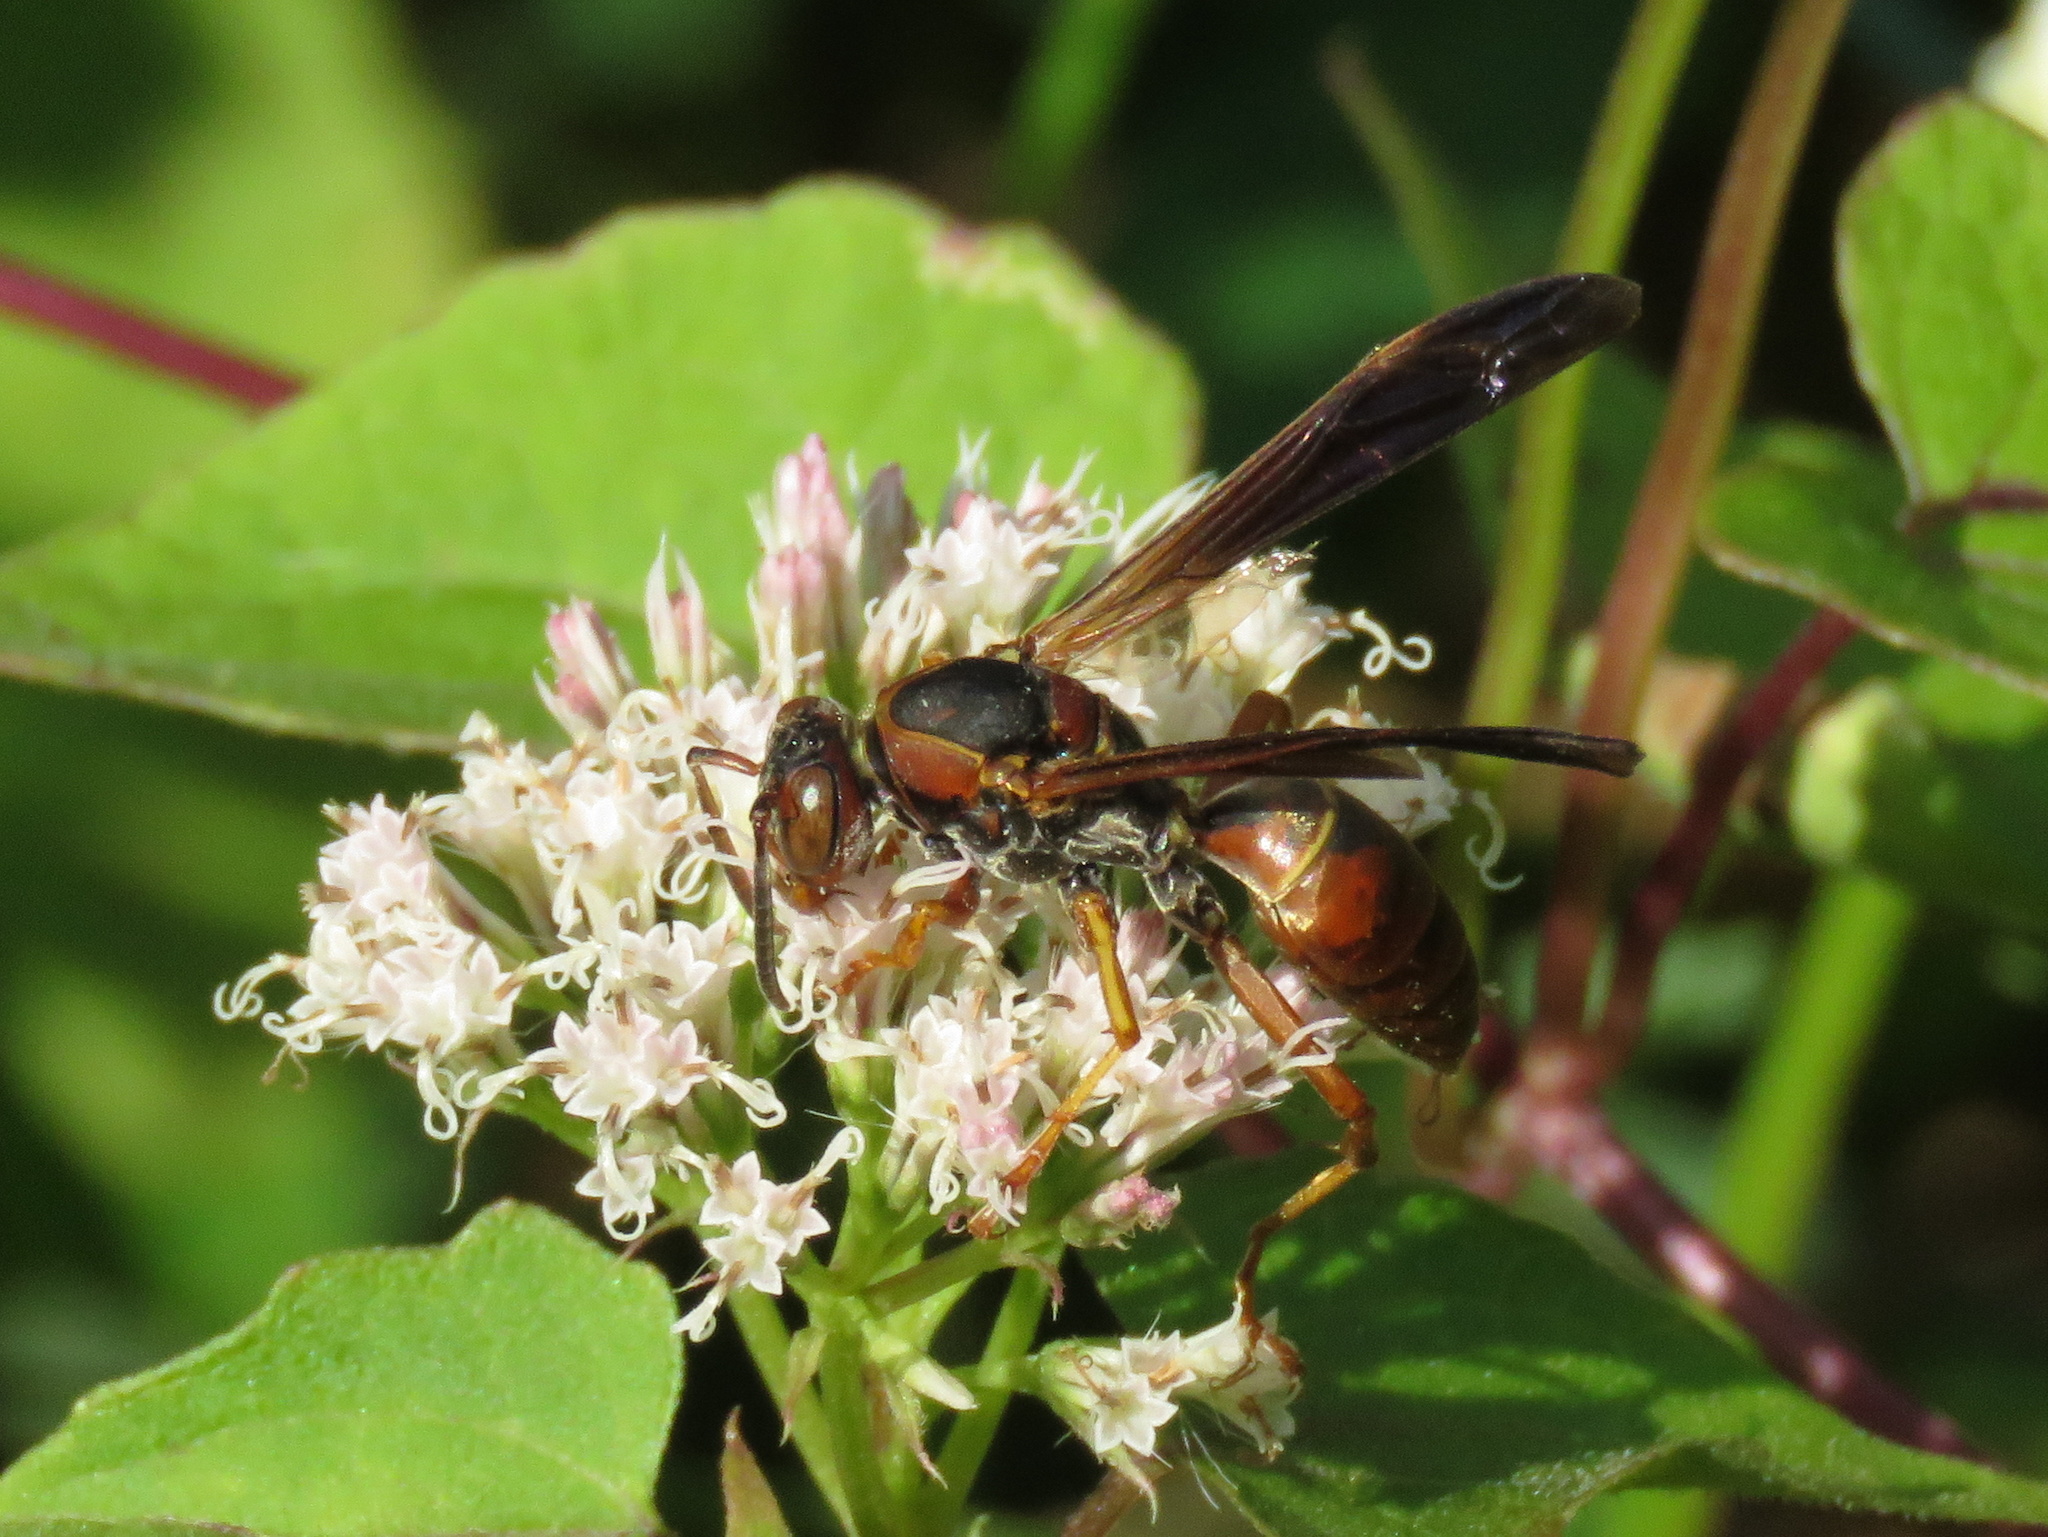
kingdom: Animalia
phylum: Arthropoda
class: Insecta
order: Hymenoptera
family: Eumenidae
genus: Polistes
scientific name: Polistes fuscatus
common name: Dark paper wasp
